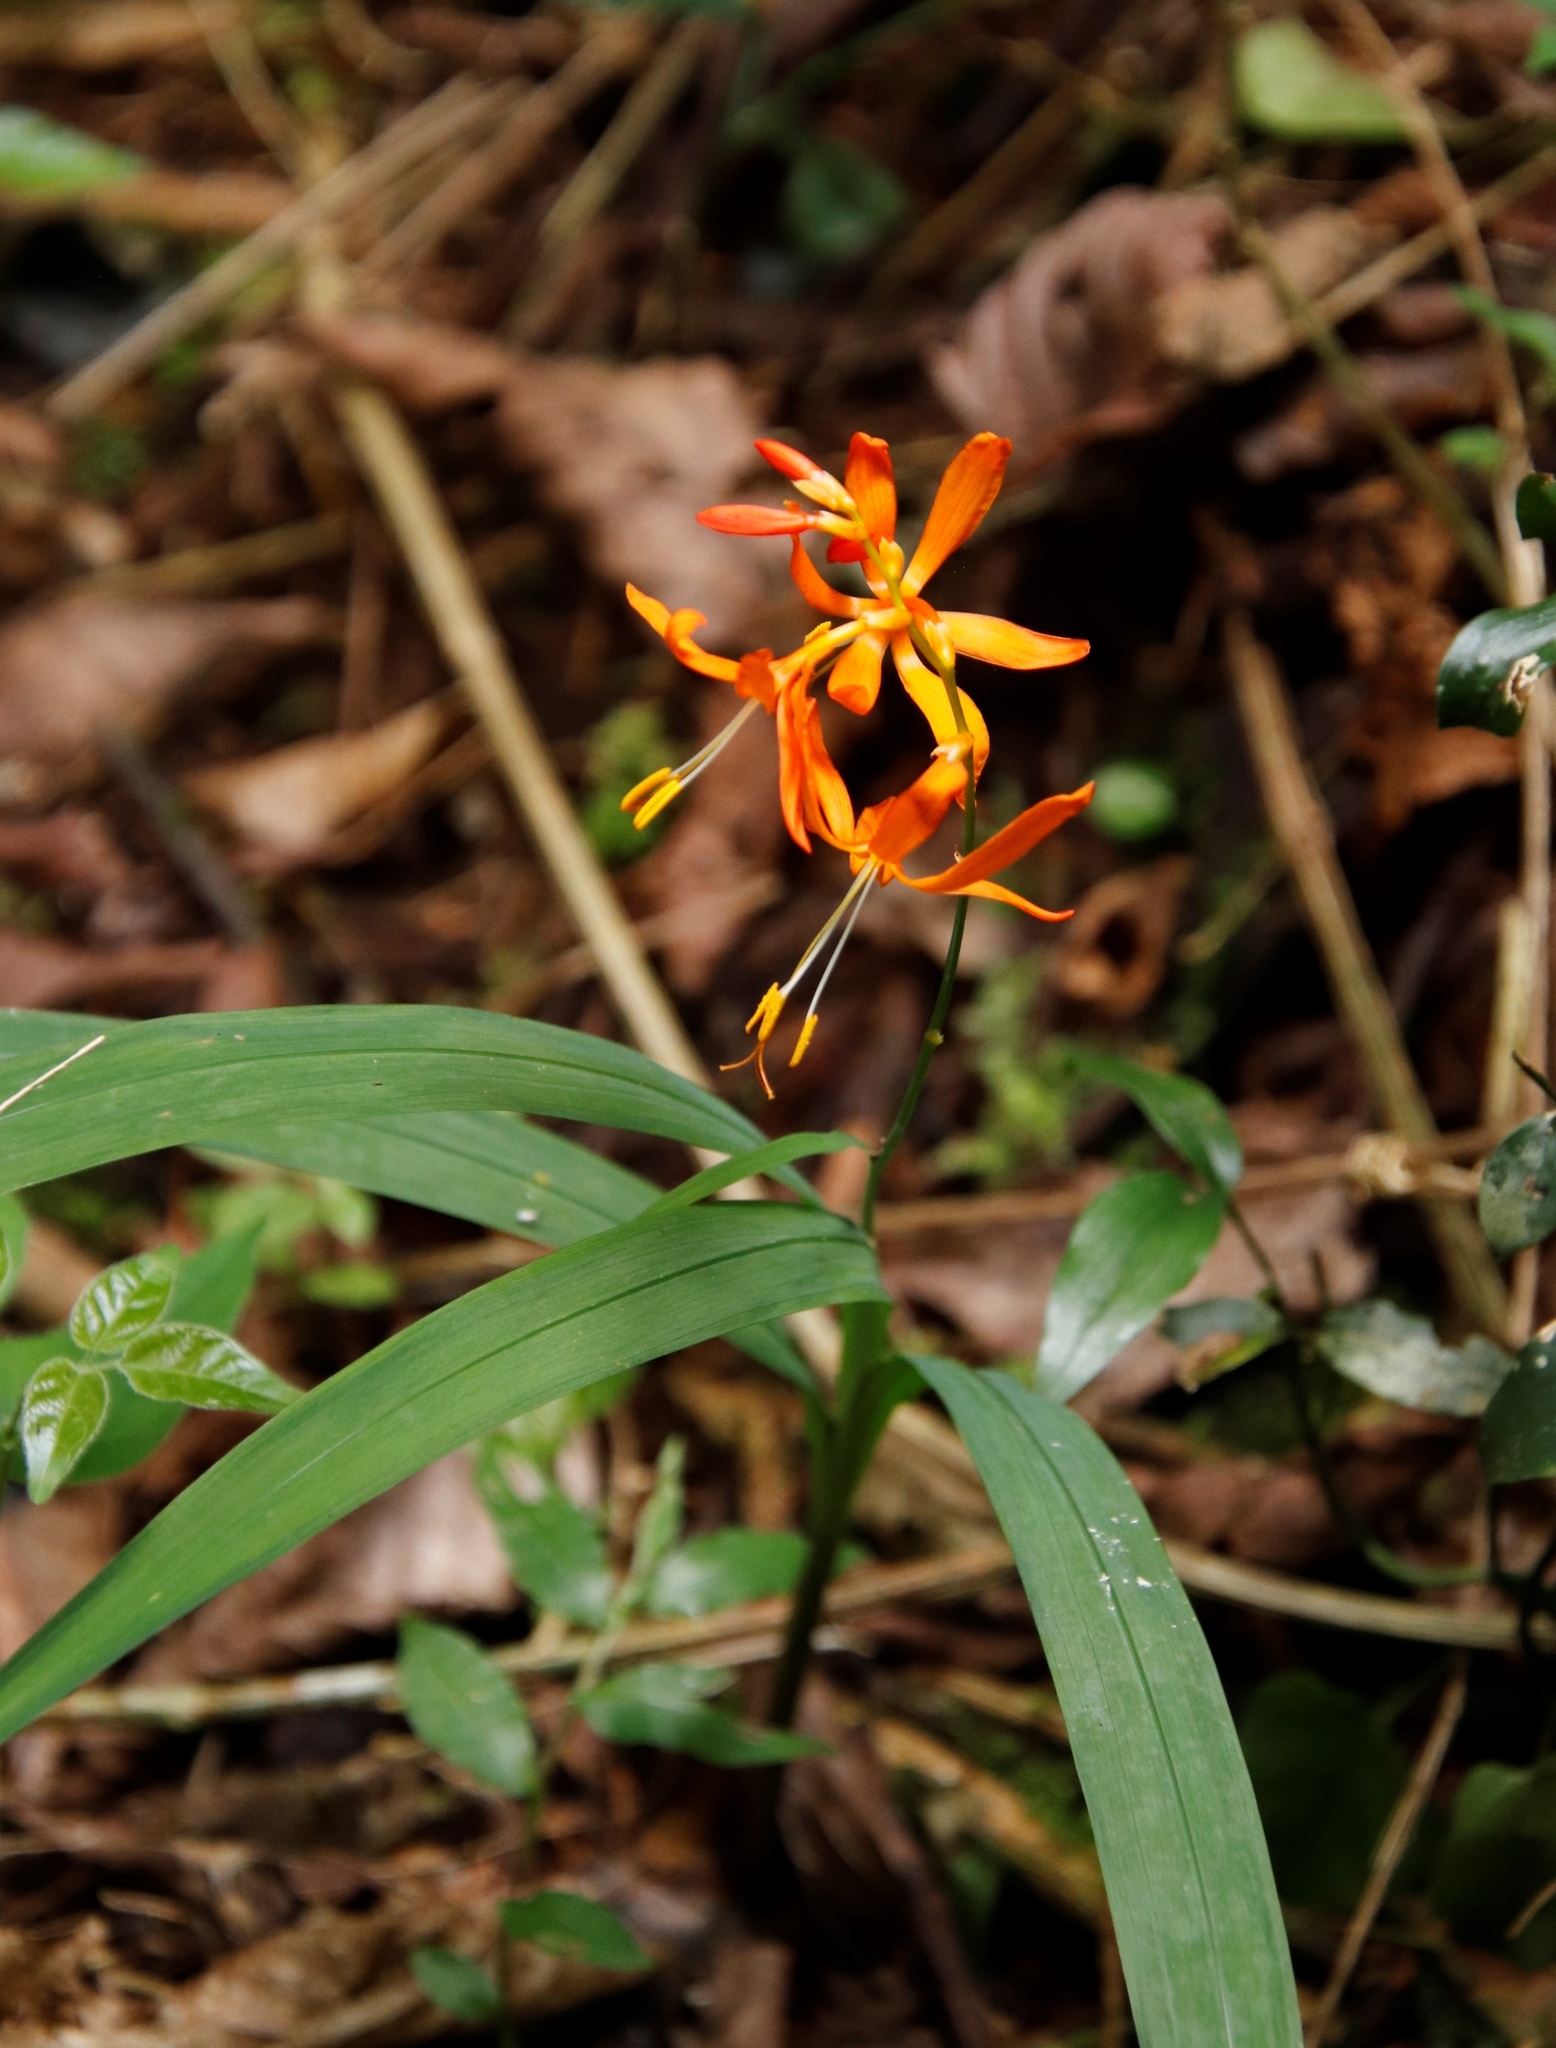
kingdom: Plantae
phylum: Tracheophyta
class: Liliopsida
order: Asparagales
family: Iridaceae
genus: Crocosmia
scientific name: Crocosmia aurea
